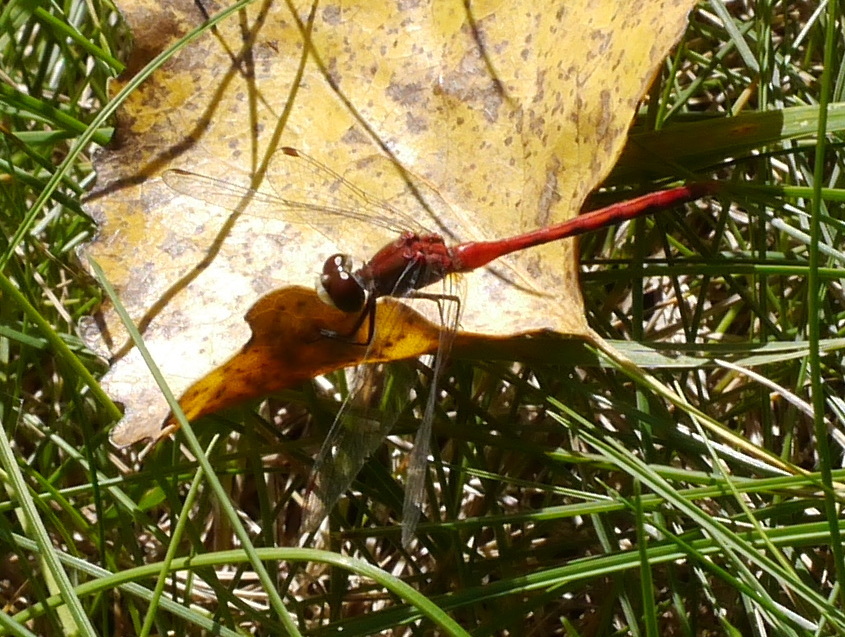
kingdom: Animalia
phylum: Arthropoda
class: Insecta
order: Odonata
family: Libellulidae
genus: Sympetrum
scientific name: Sympetrum obtrusum
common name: White-faced meadowhawk
